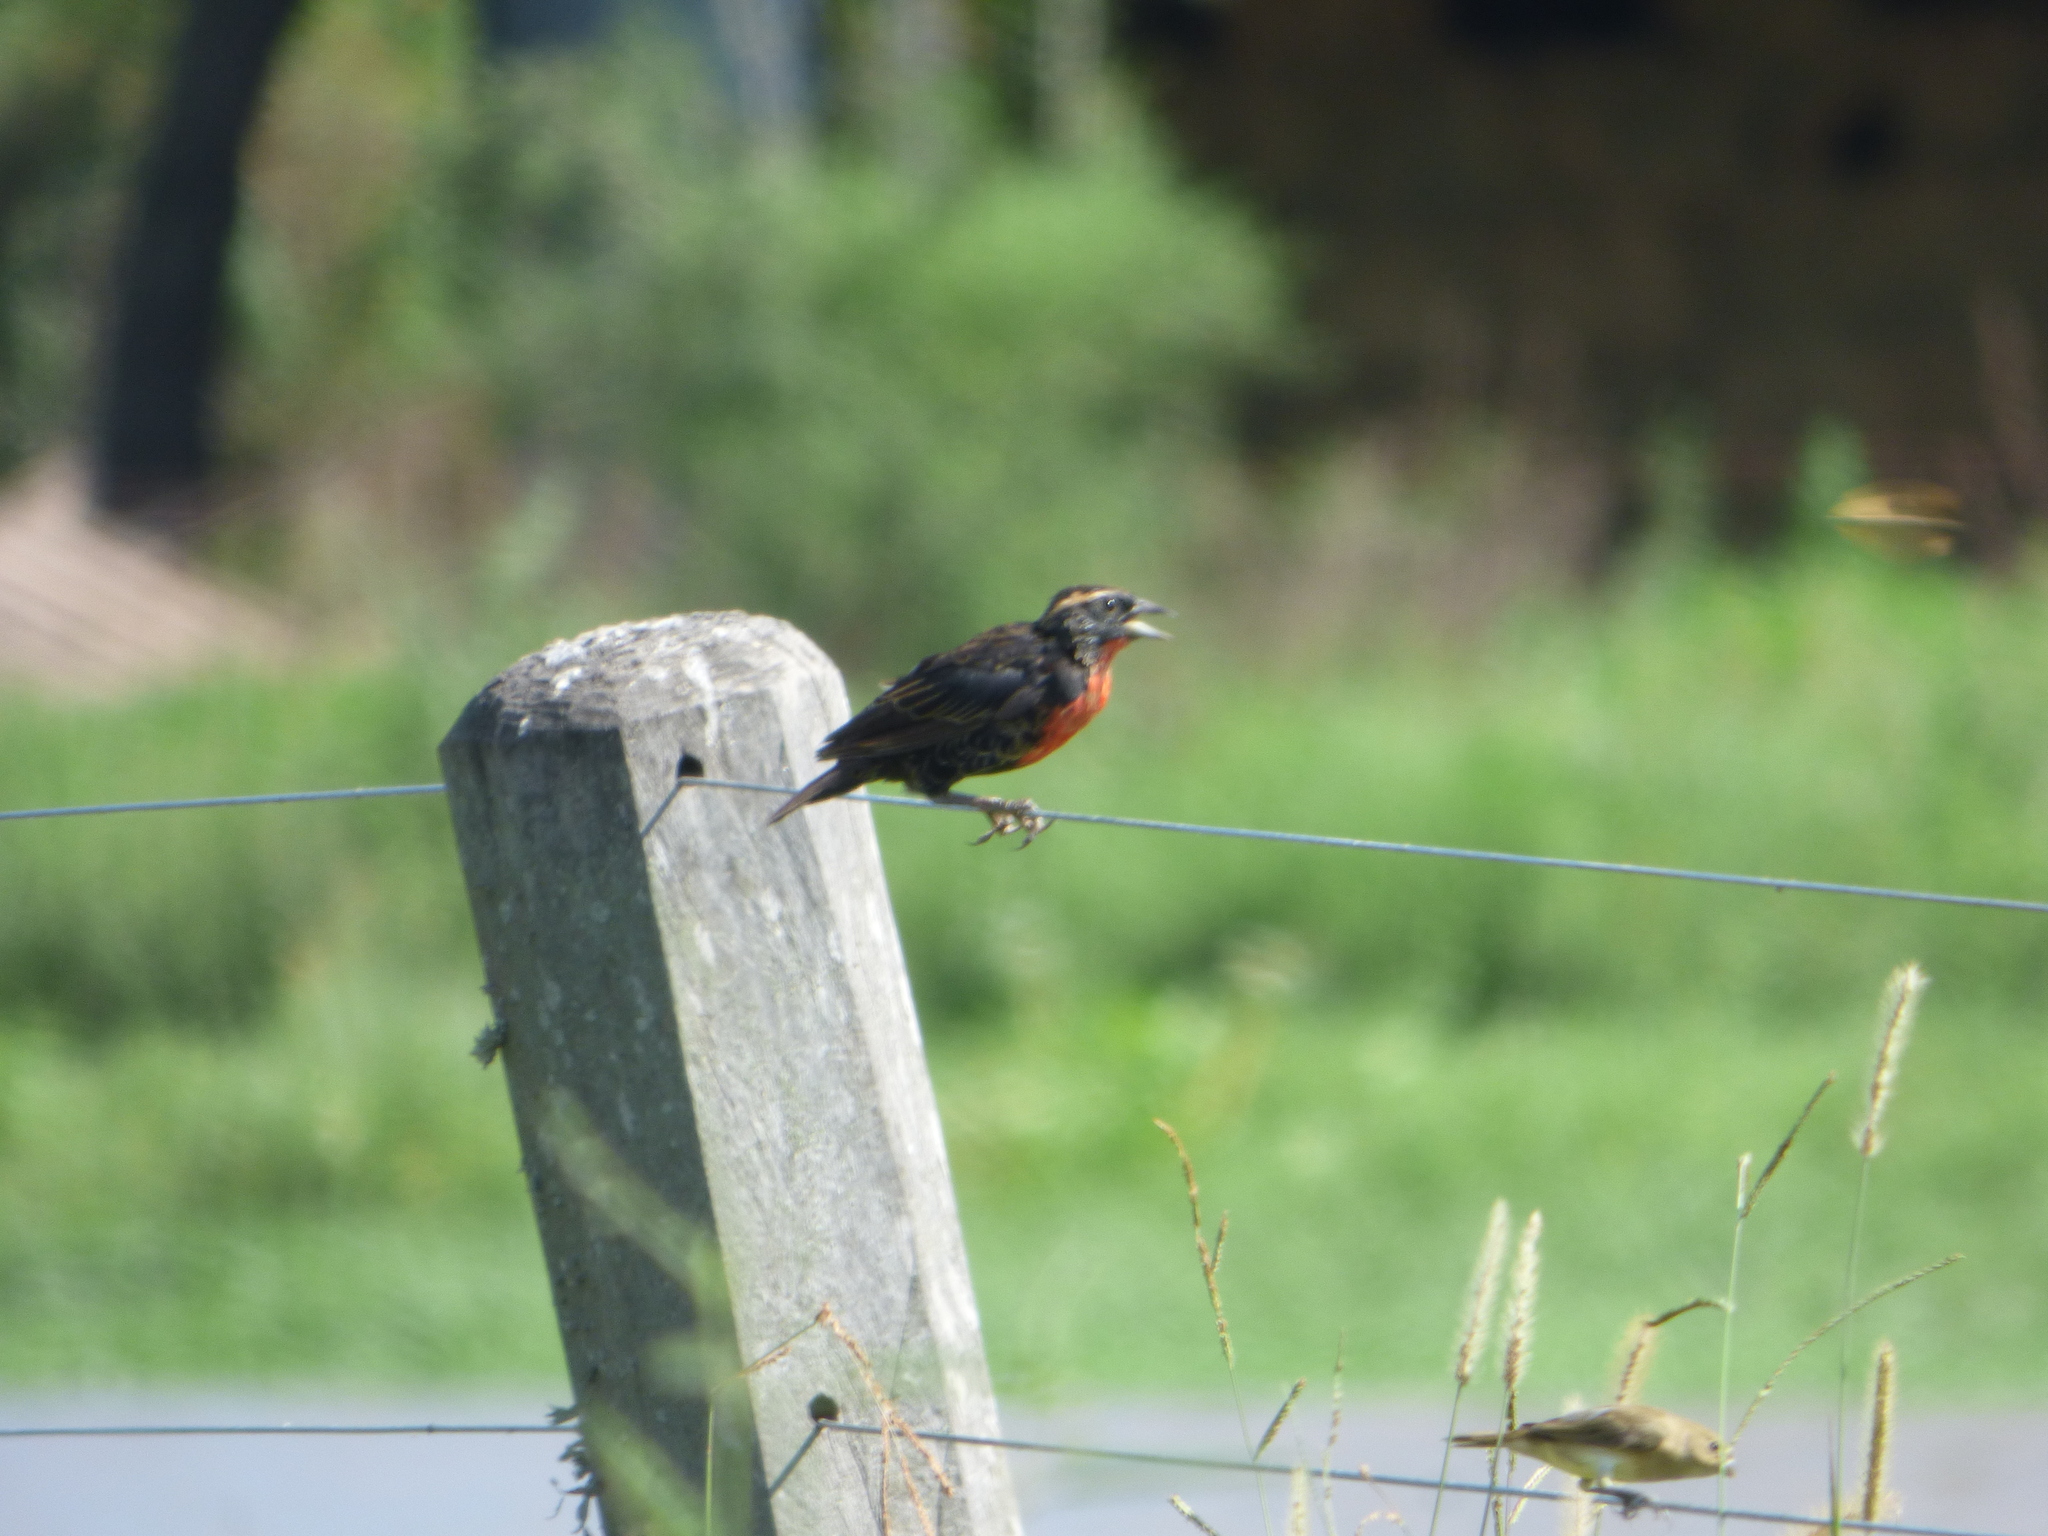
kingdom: Animalia
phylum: Chordata
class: Aves
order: Passeriformes
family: Icteridae
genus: Sturnella
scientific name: Sturnella superciliaris
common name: White-browed blackbird
